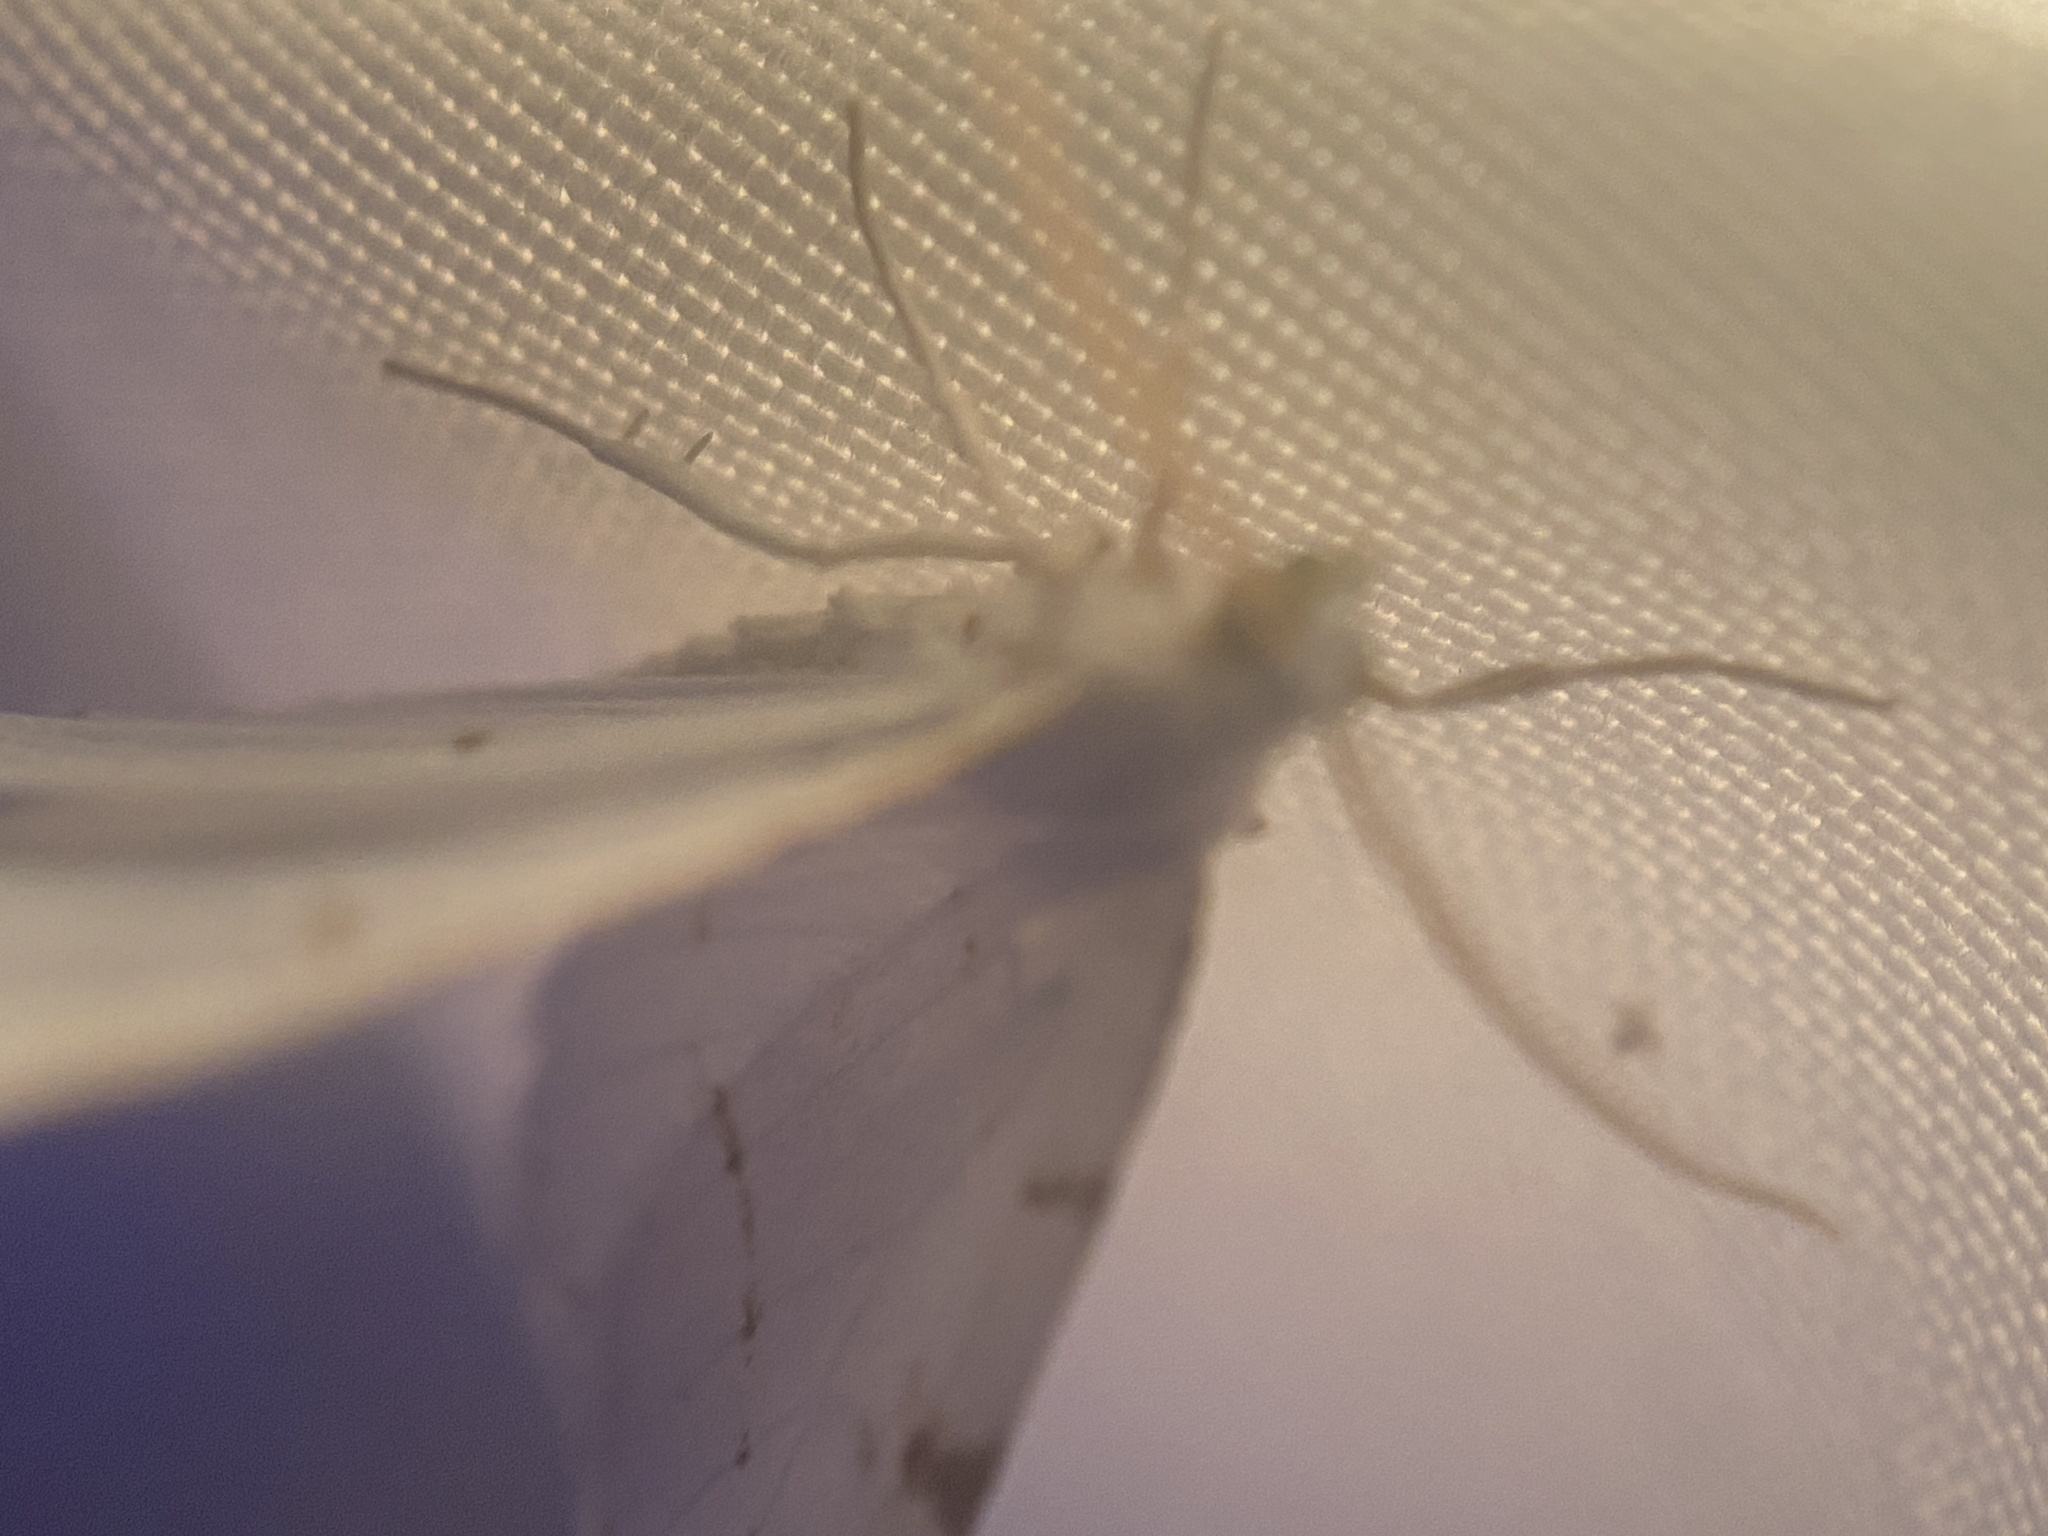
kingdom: Animalia
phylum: Arthropoda
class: Insecta
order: Lepidoptera
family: Geometridae
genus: Macaria
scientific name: Macaria pustularia
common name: Lesser maple spanworm moth
